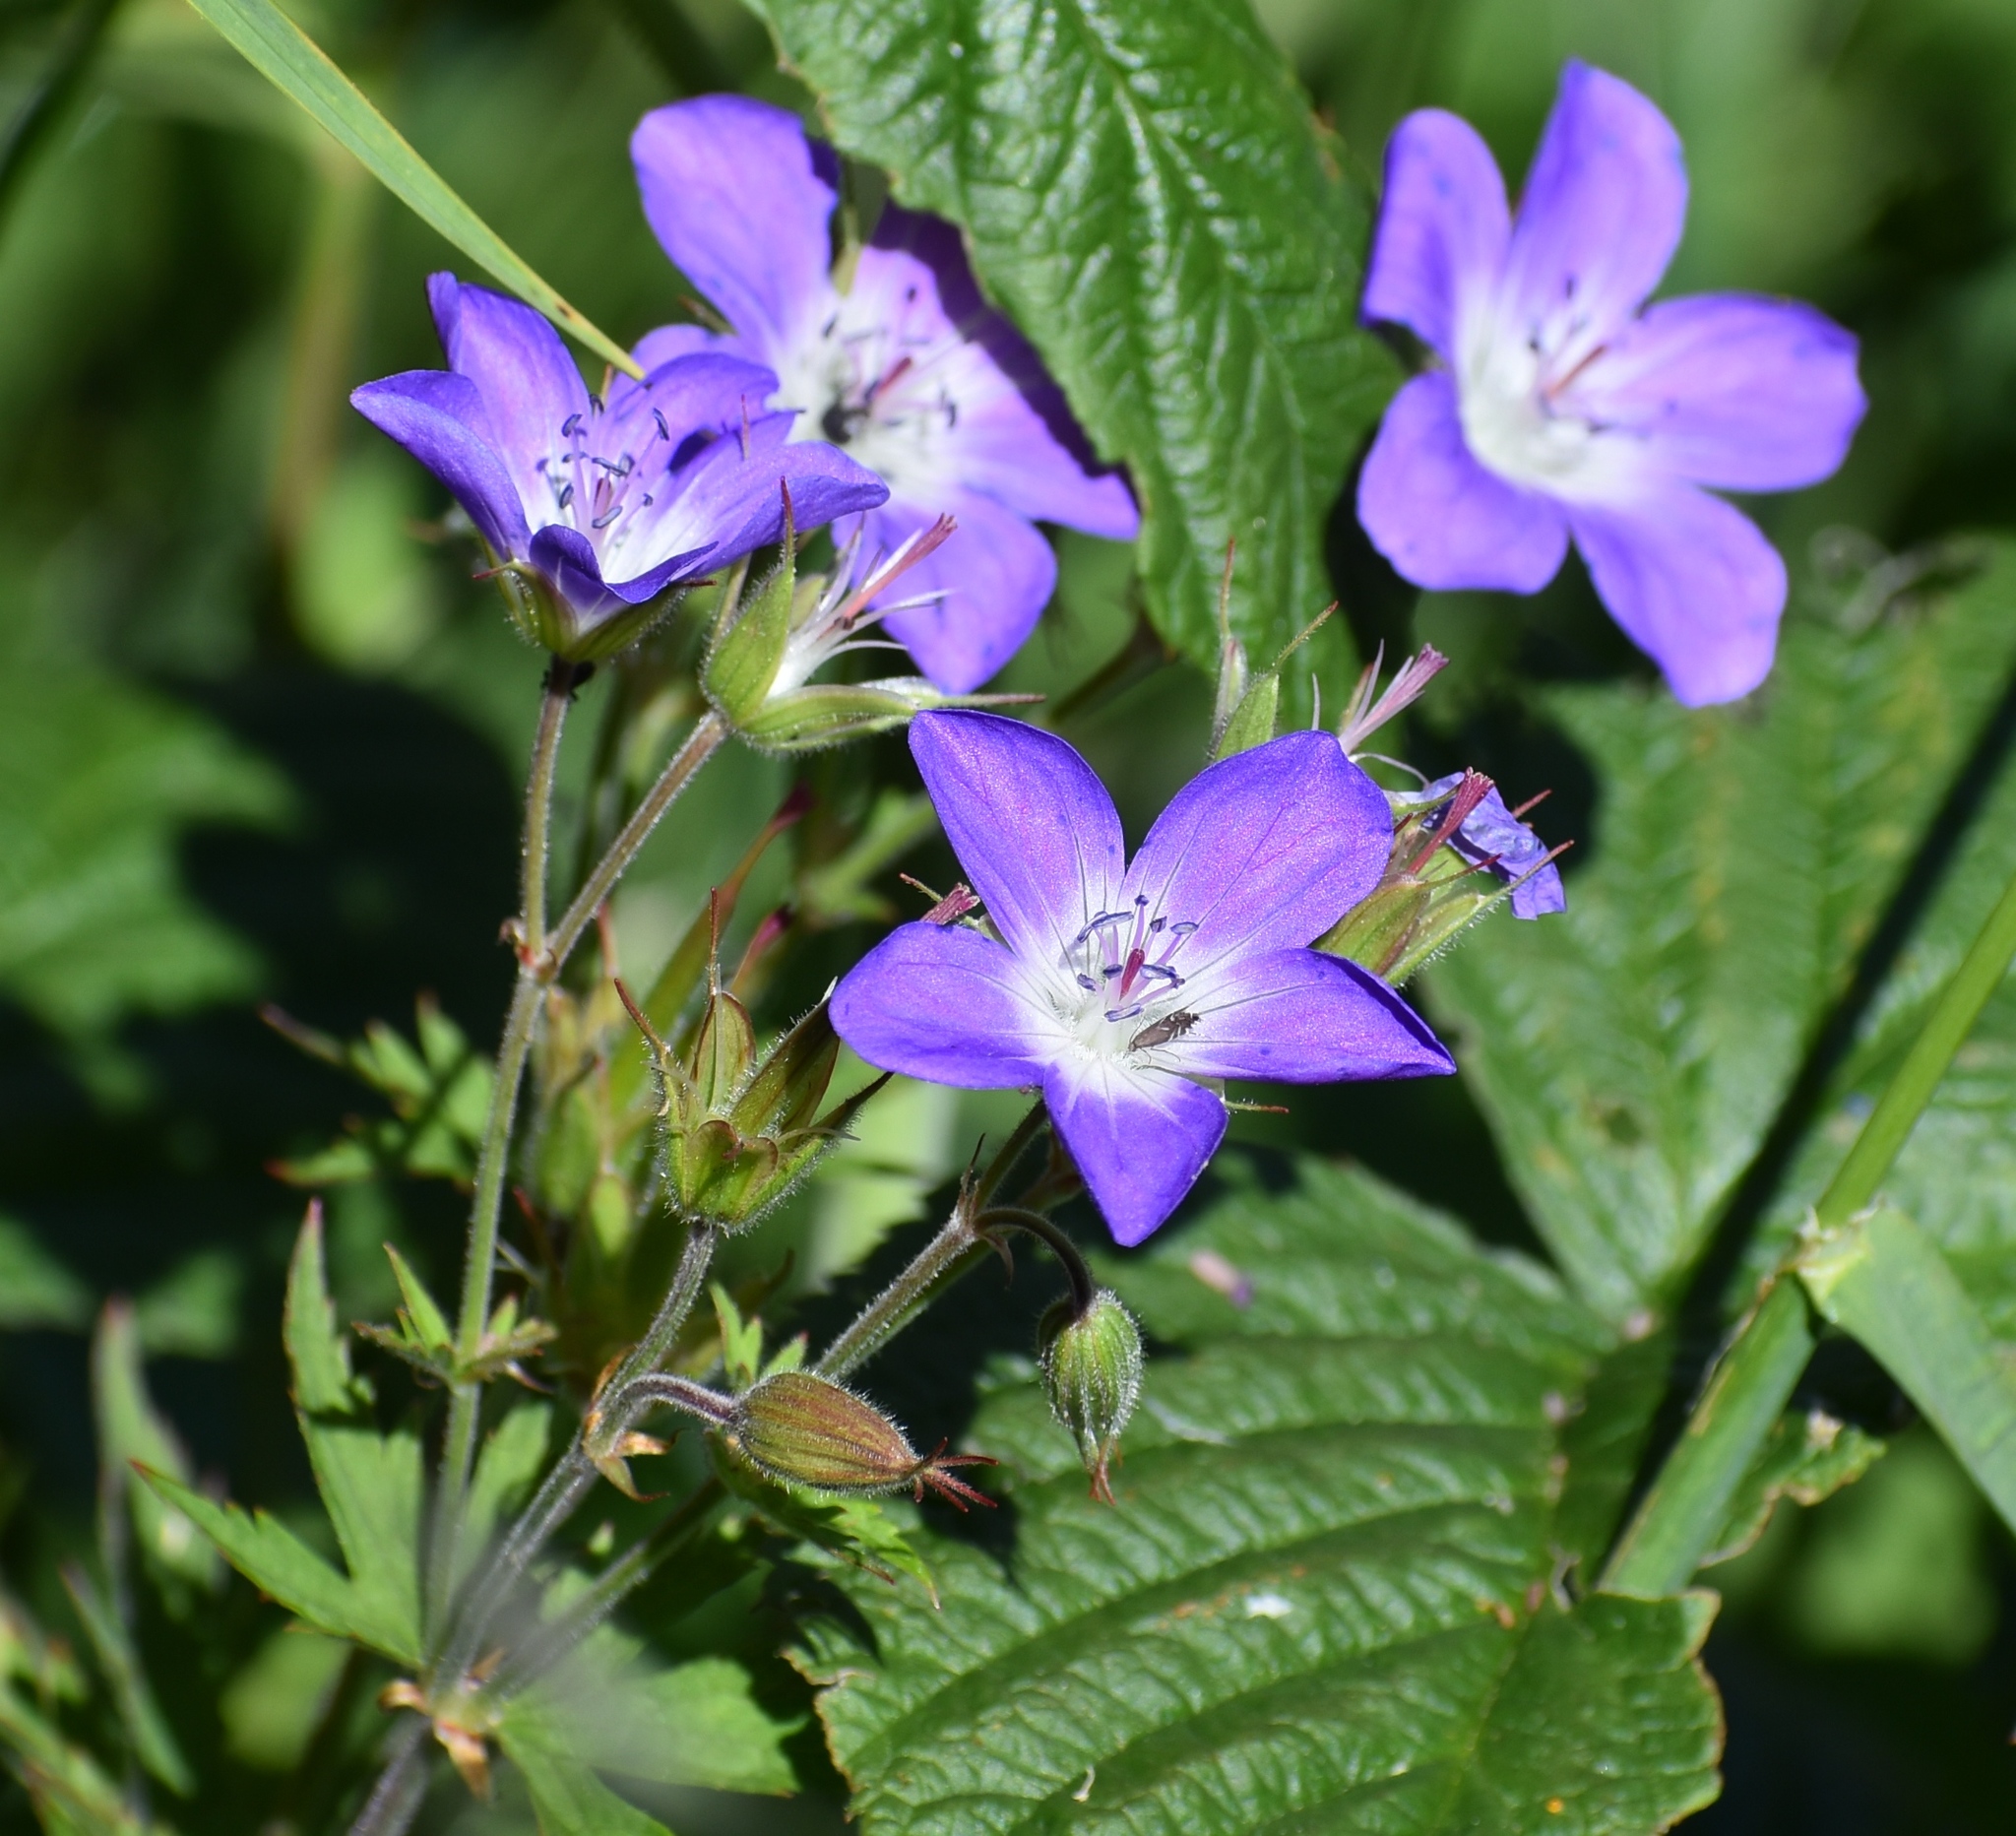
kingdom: Plantae
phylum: Tracheophyta
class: Magnoliopsida
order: Geraniales
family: Geraniaceae
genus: Geranium
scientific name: Geranium sylvaticum
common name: Wood crane's-bill
